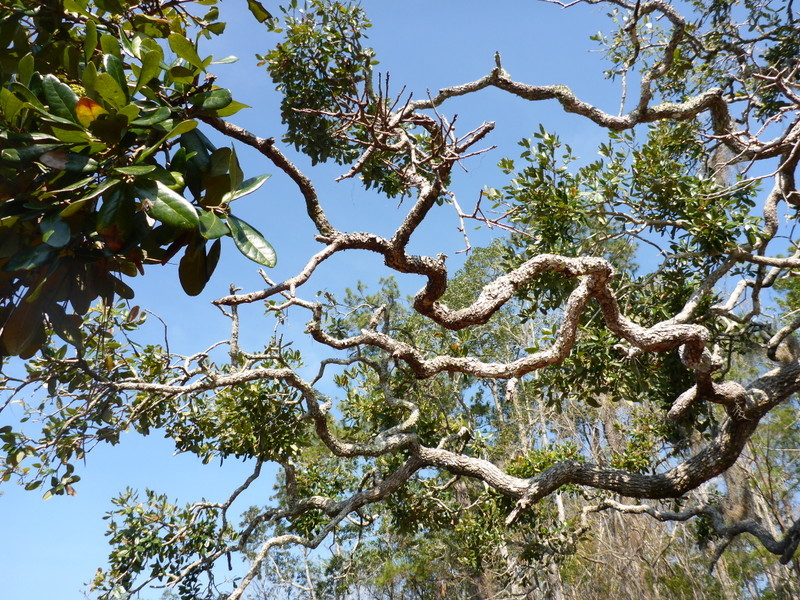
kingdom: Plantae
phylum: Tracheophyta
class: Magnoliopsida
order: Fagales
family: Fagaceae
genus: Quercus
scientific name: Quercus virginiana
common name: Southern live oak
